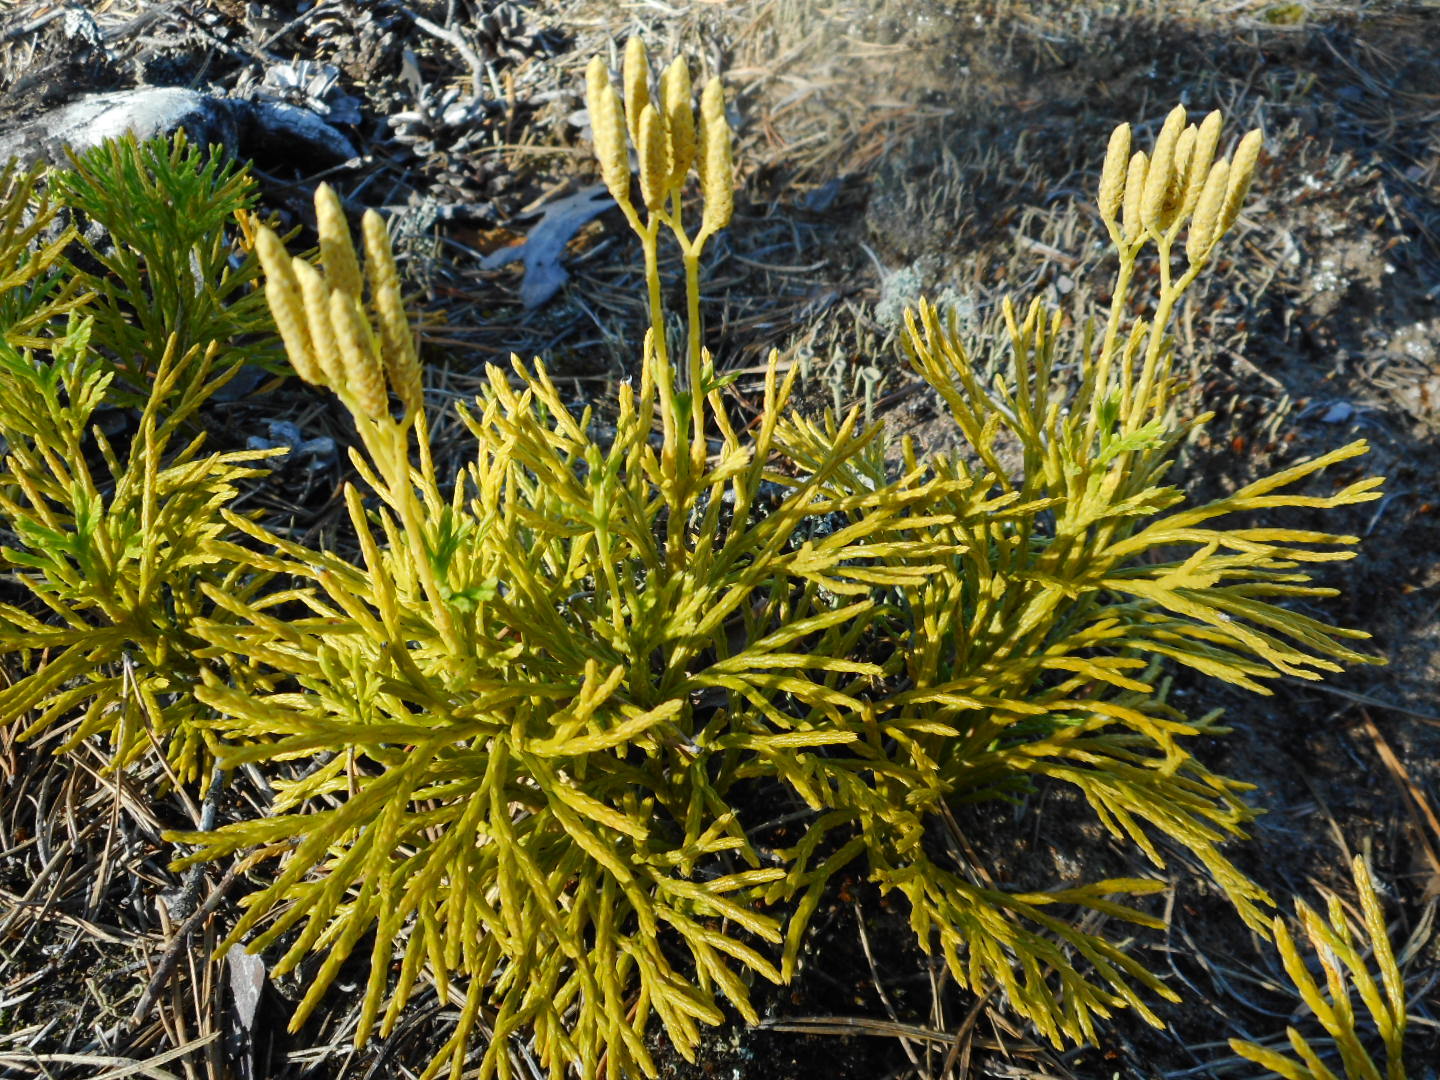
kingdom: Plantae
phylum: Tracheophyta
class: Lycopodiopsida
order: Lycopodiales
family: Lycopodiaceae
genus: Diphasiastrum
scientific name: Diphasiastrum complanatum
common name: Northern running-pine
